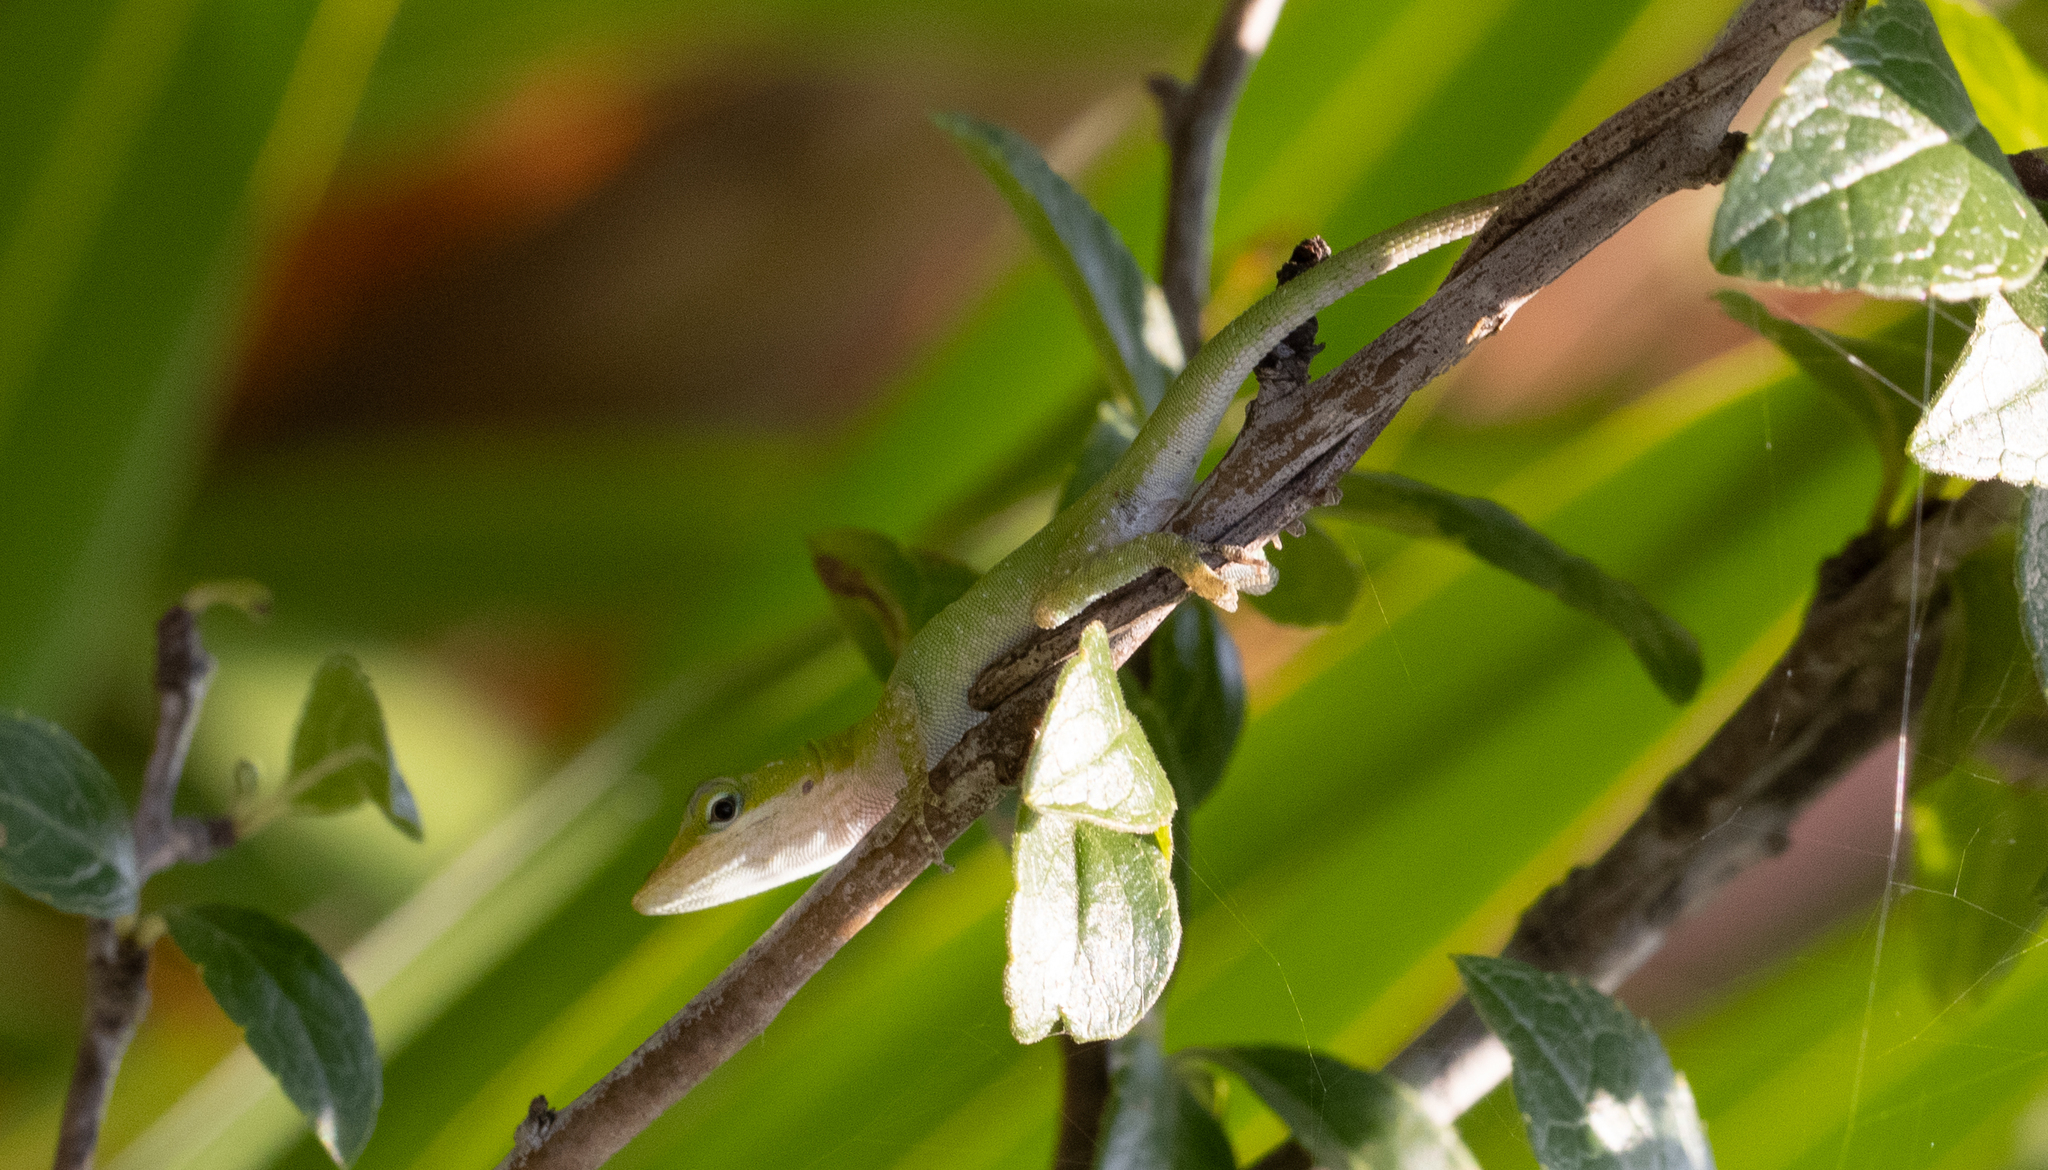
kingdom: Animalia
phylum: Chordata
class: Squamata
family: Dactyloidae
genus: Anolis
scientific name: Anolis carolinensis
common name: Green anole
